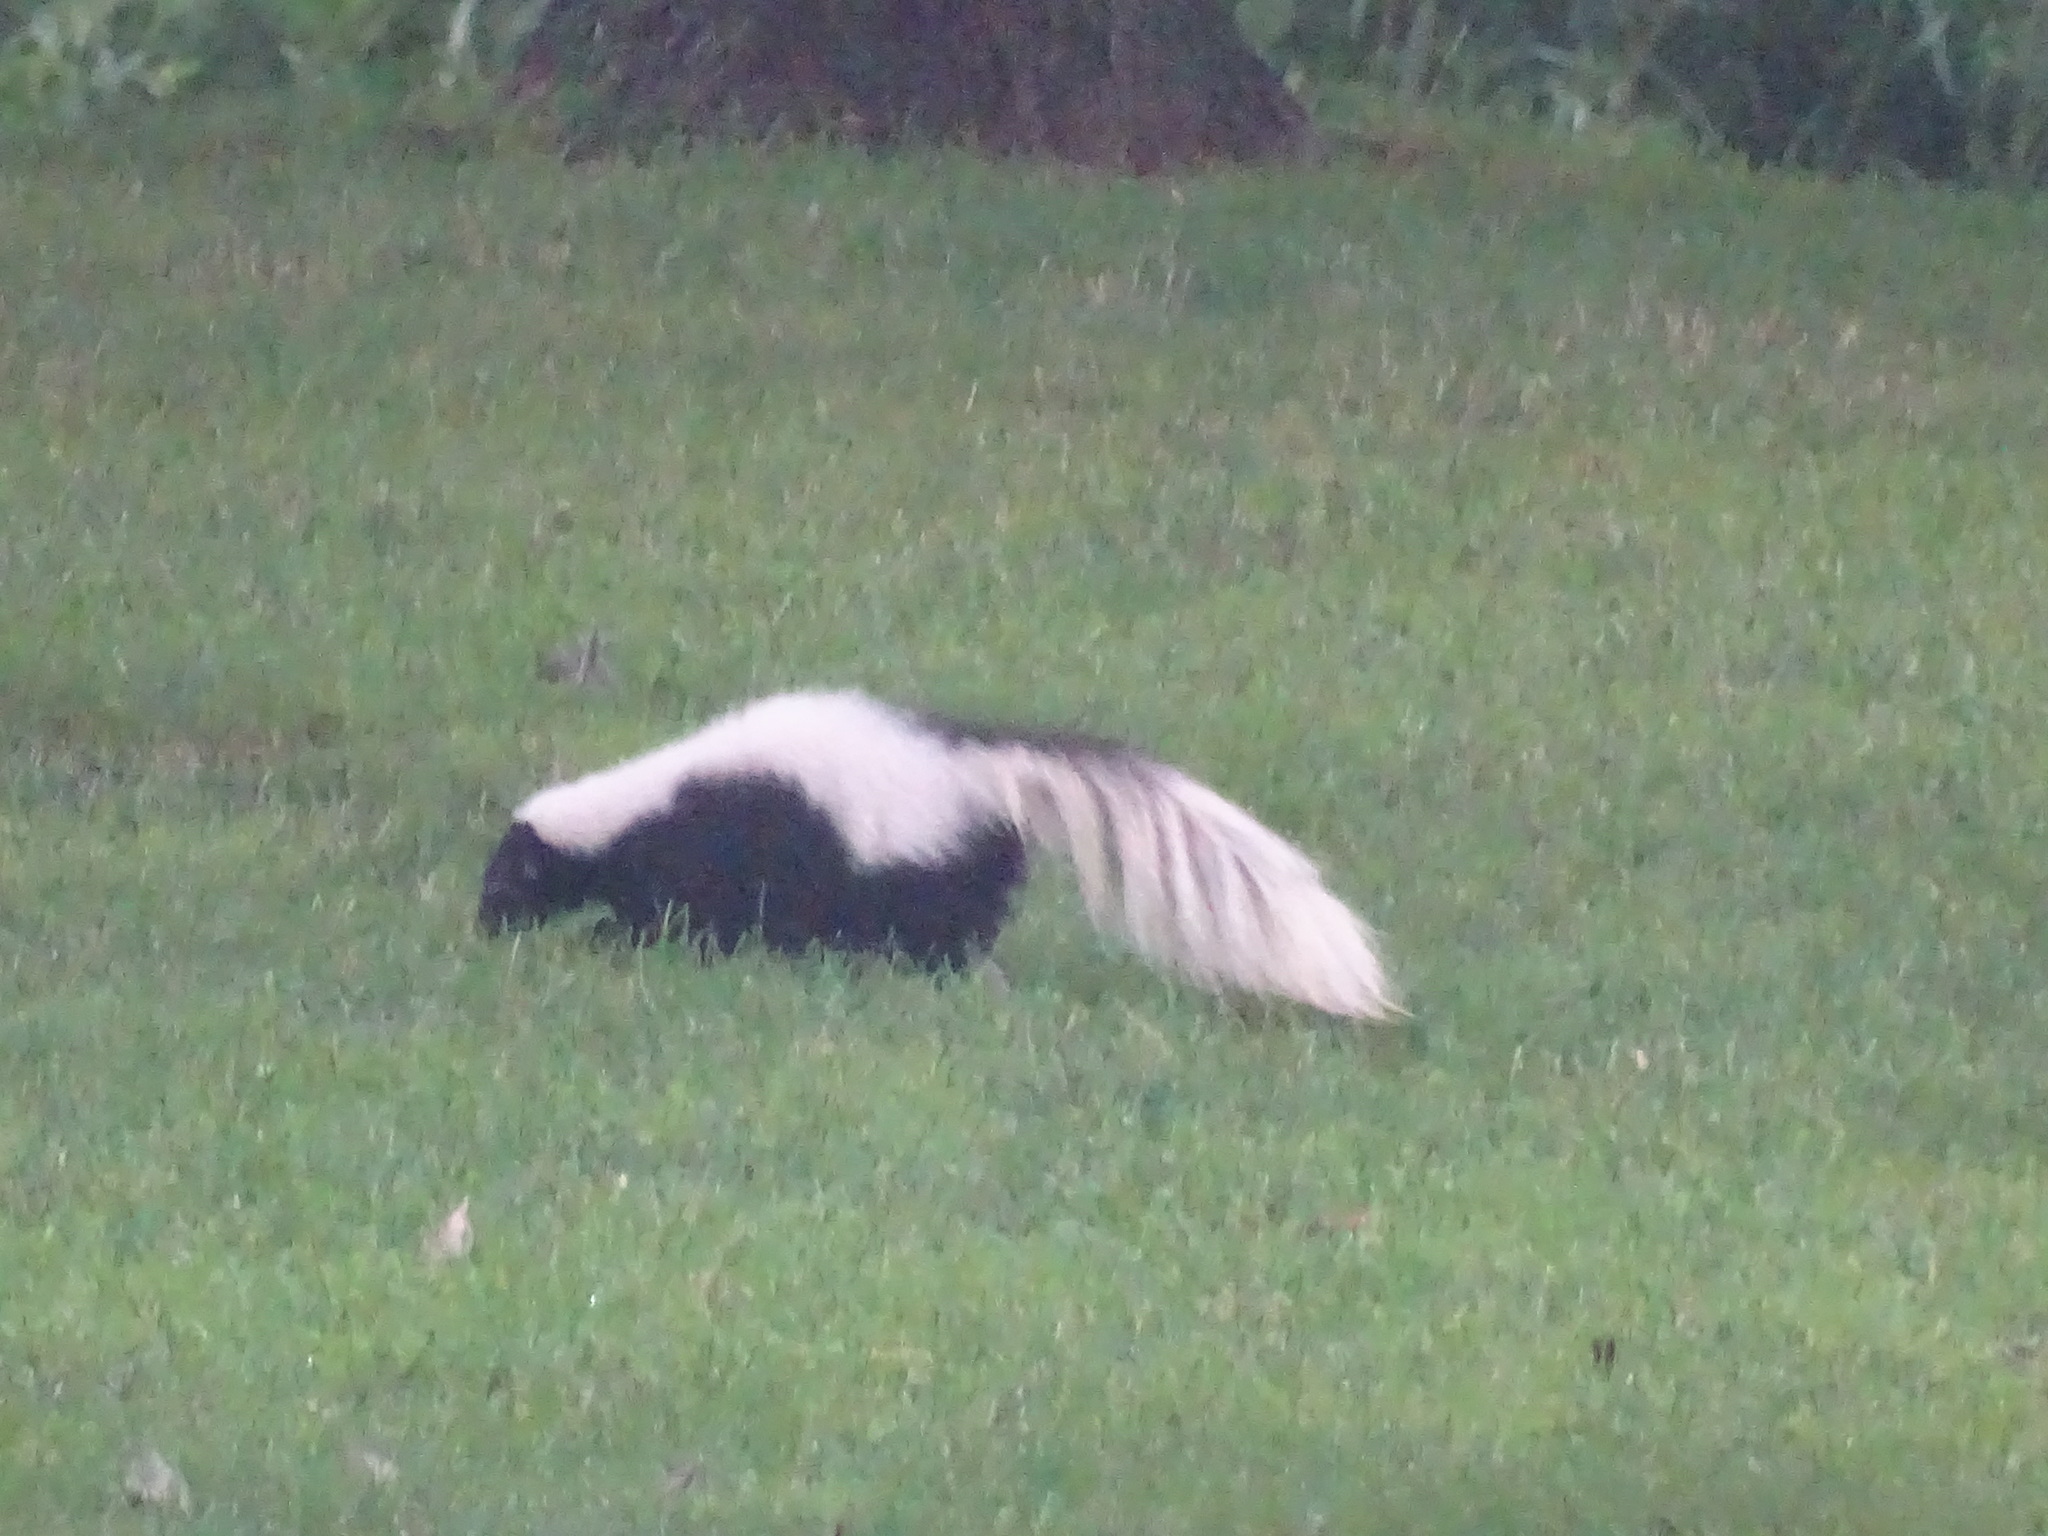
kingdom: Animalia
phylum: Chordata
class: Mammalia
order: Carnivora
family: Mephitidae
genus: Mephitis
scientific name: Mephitis mephitis
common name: Striped skunk
